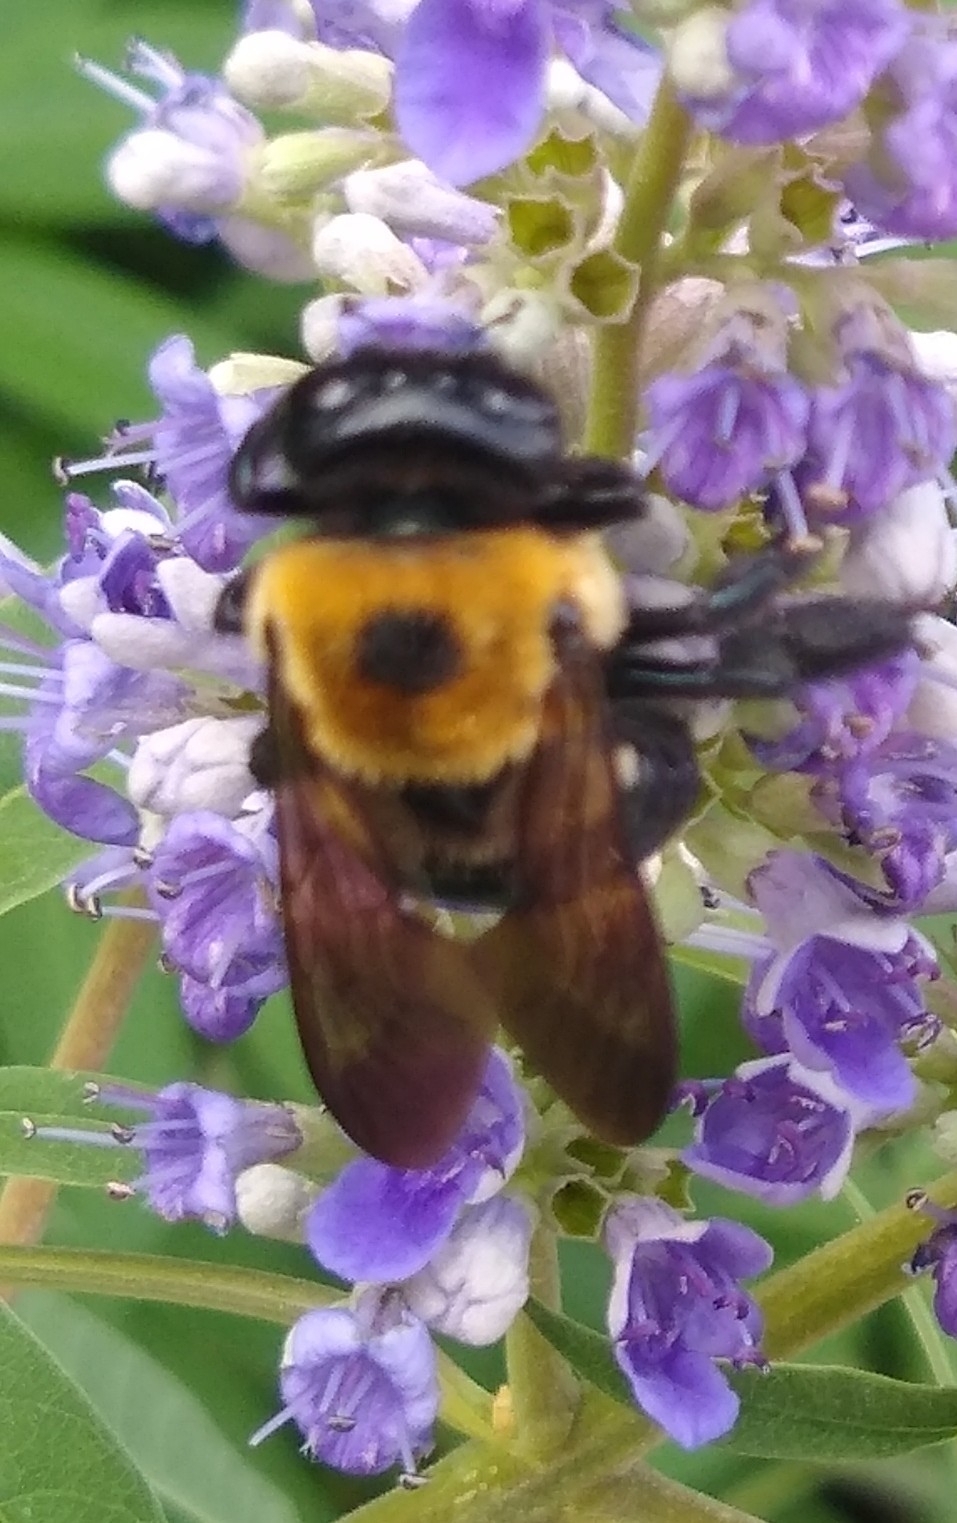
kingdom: Animalia
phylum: Arthropoda
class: Insecta
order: Hymenoptera
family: Apidae
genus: Xylocopa
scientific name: Xylocopa virginica
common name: Carpenter bee
